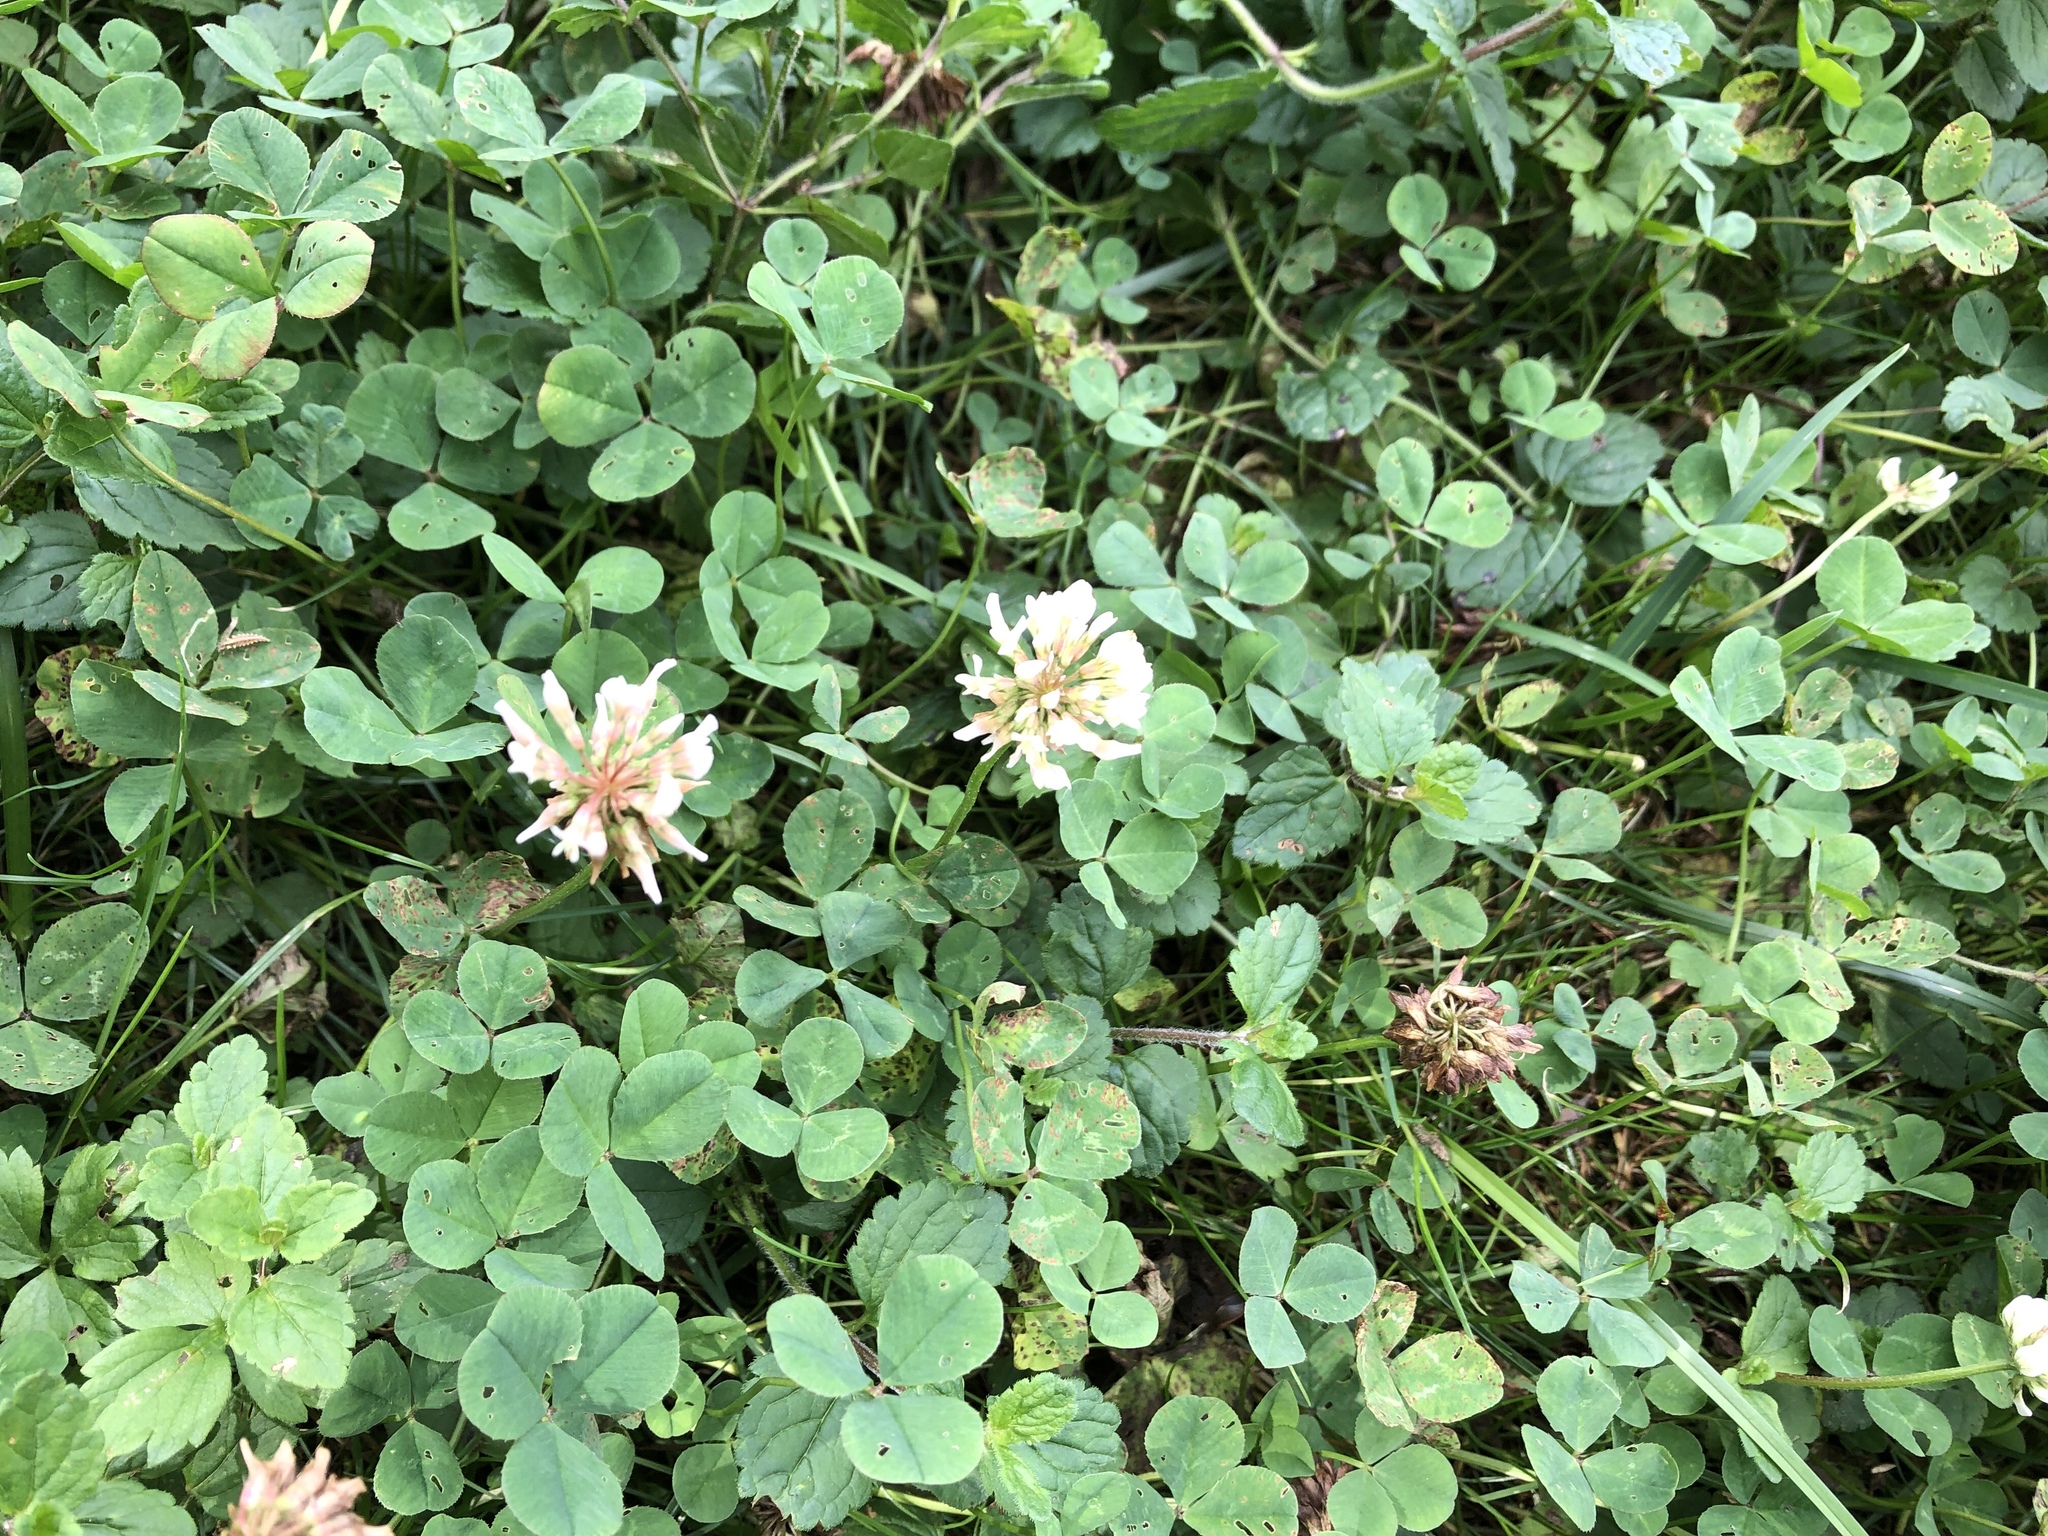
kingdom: Plantae
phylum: Tracheophyta
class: Magnoliopsida
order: Fabales
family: Fabaceae
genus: Trifolium
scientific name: Trifolium repens
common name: White clover
